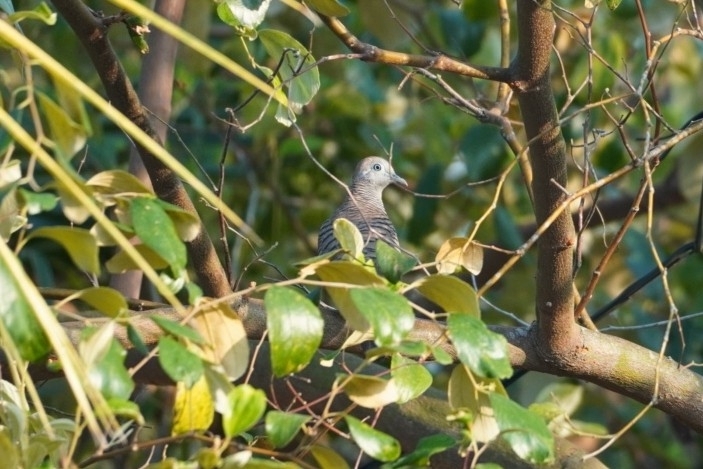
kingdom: Animalia
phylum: Chordata
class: Aves
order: Columbiformes
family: Columbidae
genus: Geopelia
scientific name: Geopelia striata
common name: Zebra dove
